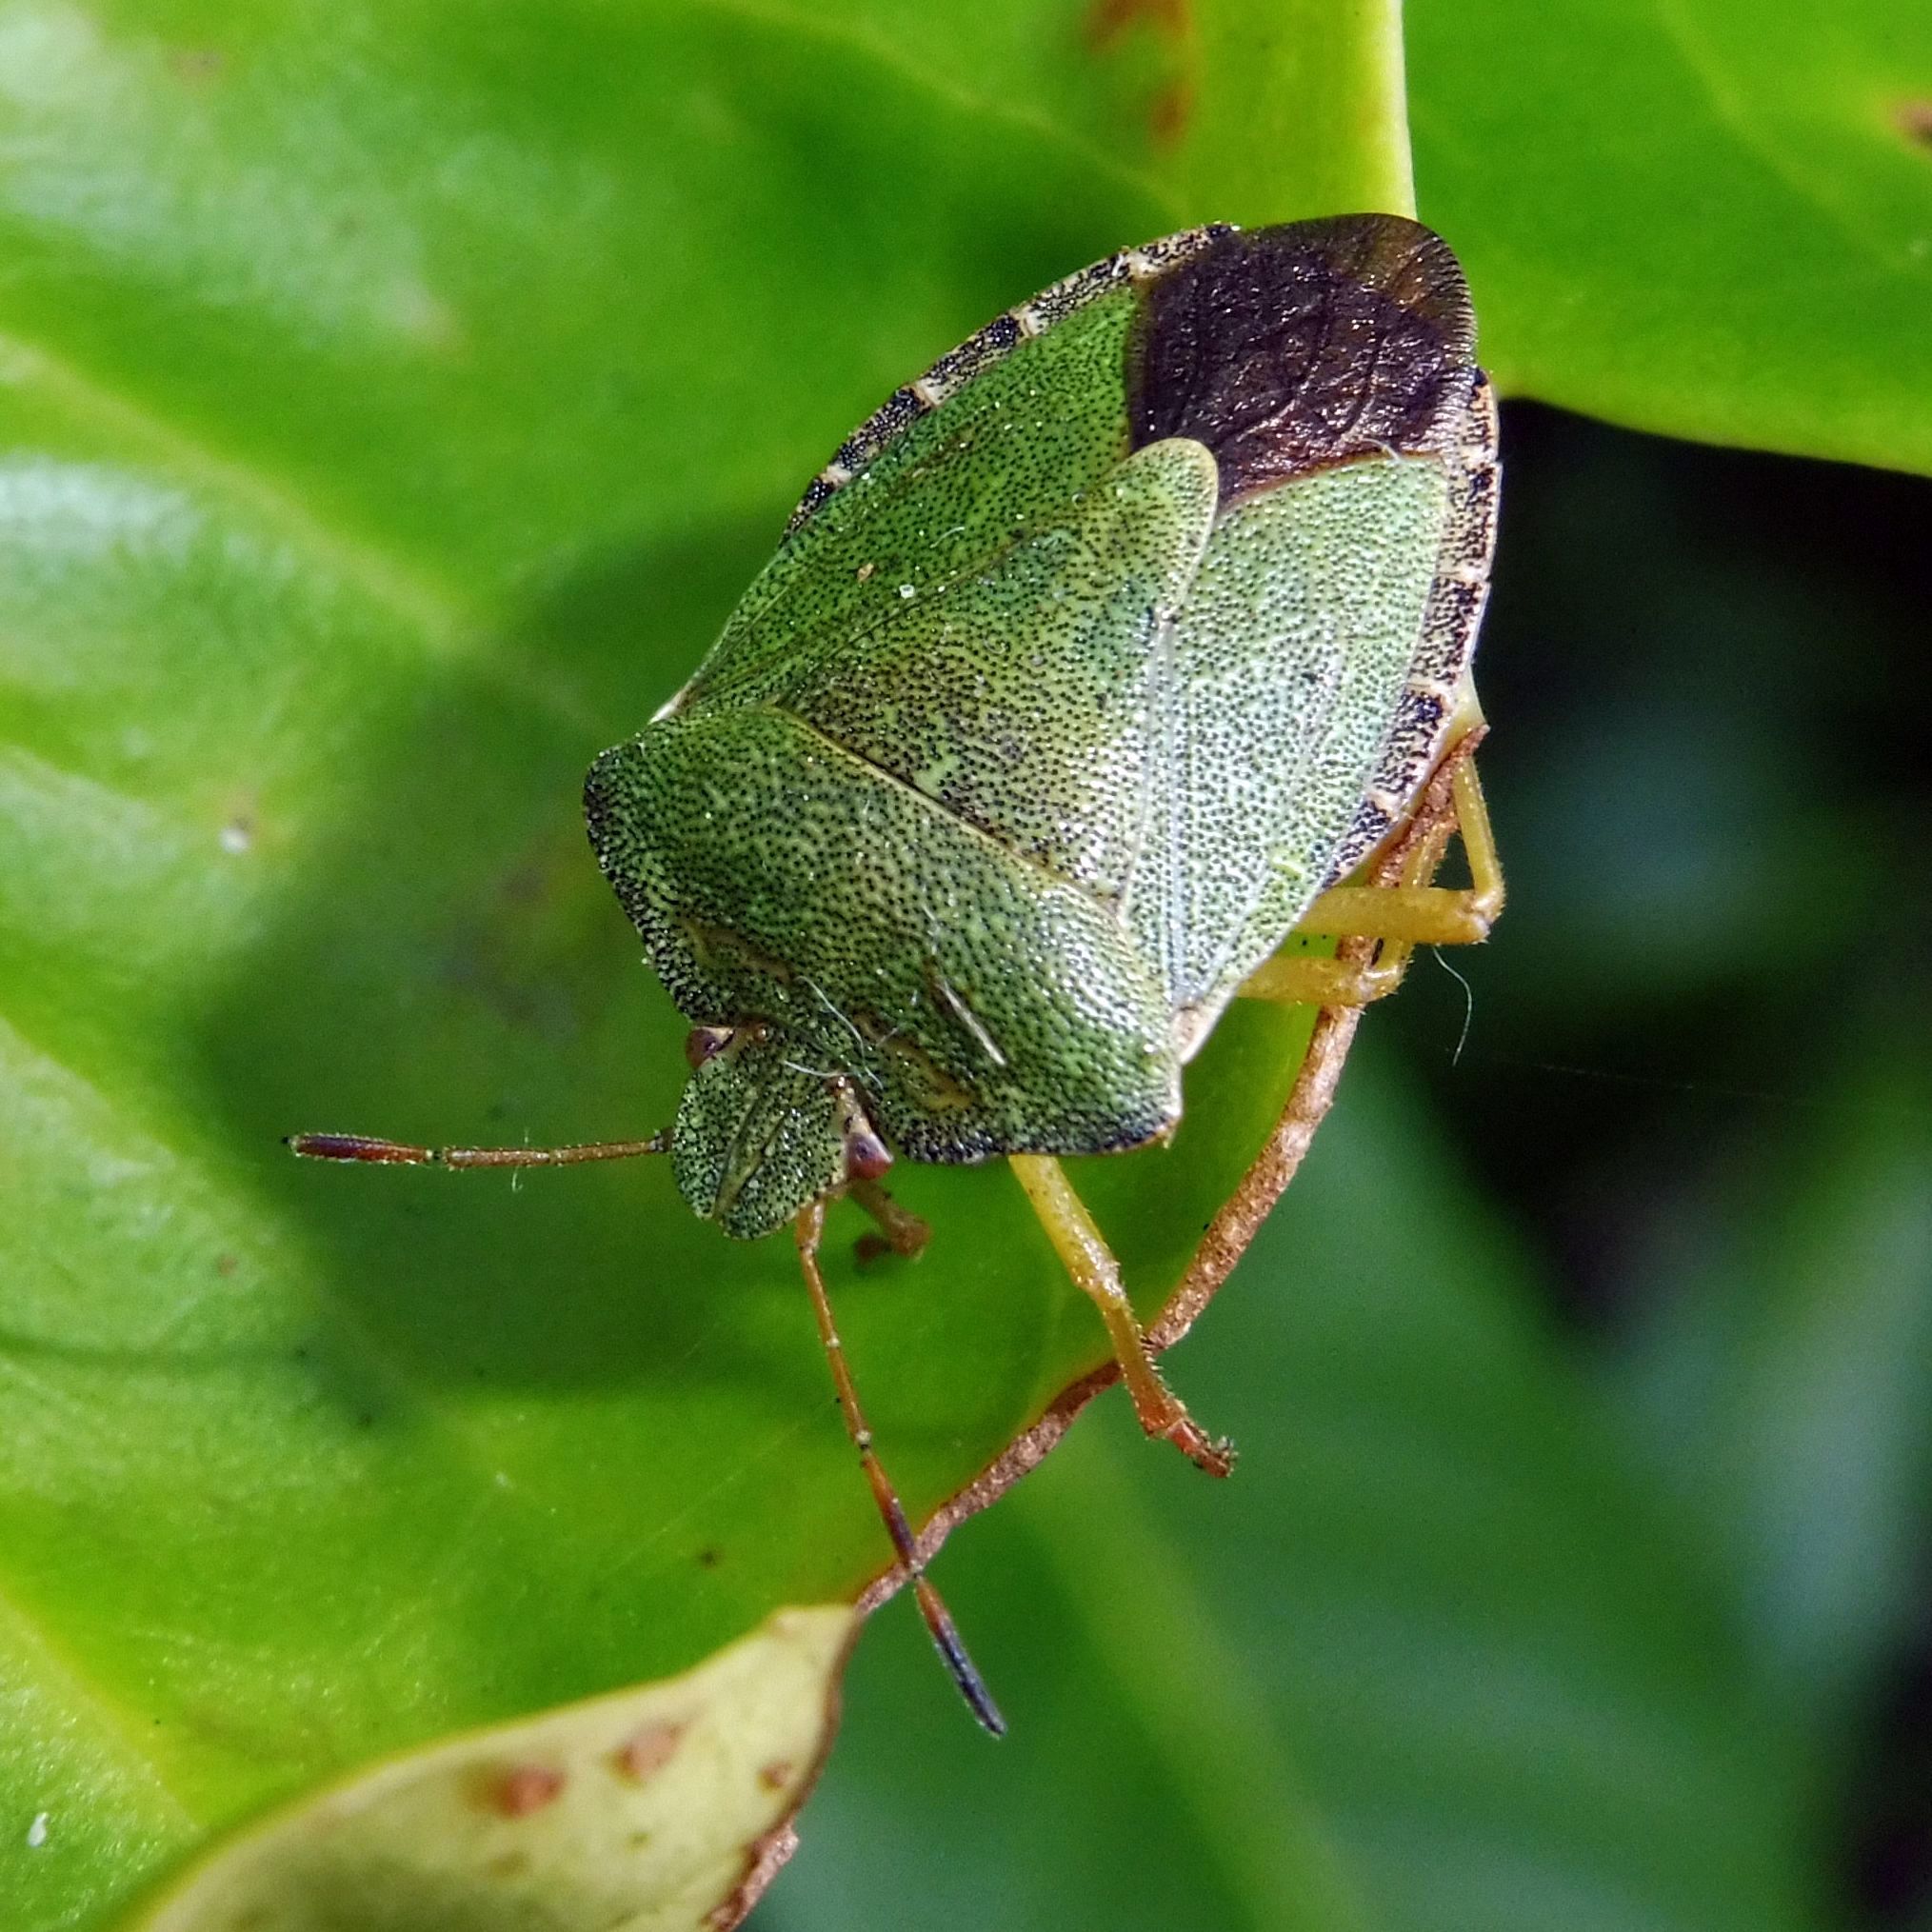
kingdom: Animalia
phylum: Arthropoda
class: Insecta
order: Hemiptera
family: Pentatomidae
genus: Palomena
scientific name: Palomena prasina
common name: Green shieldbug
